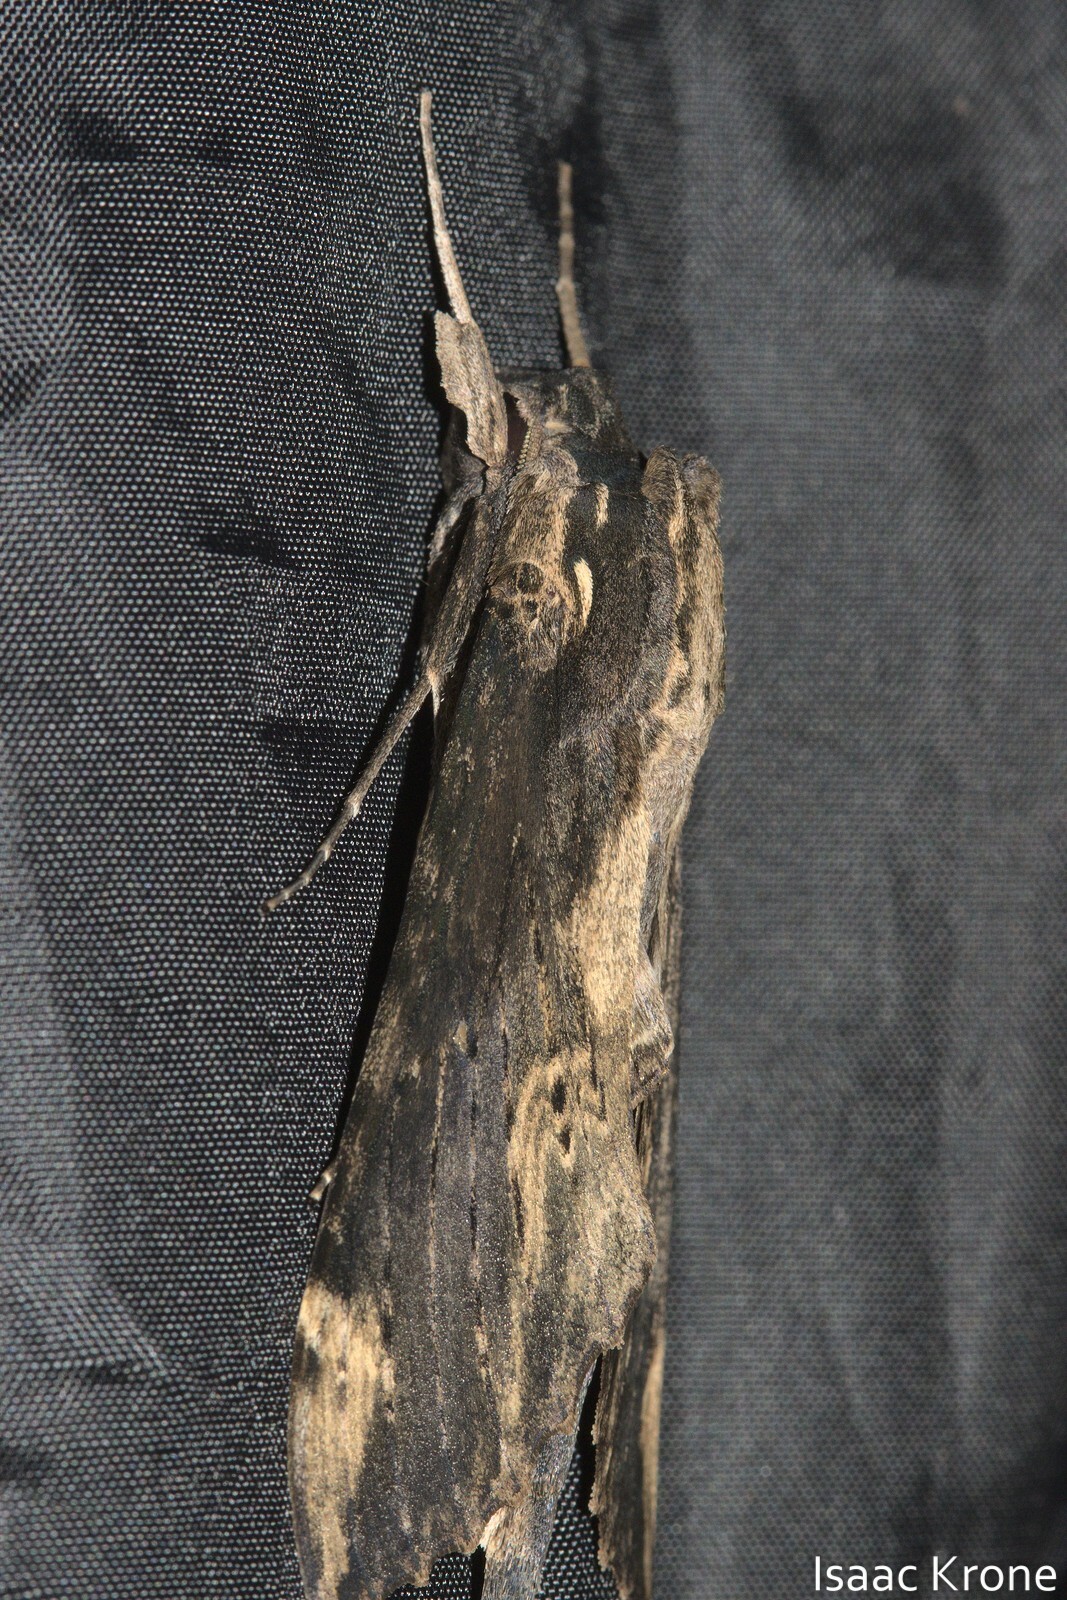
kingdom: Animalia
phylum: Arthropoda
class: Insecta
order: Lepidoptera
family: Sphingidae
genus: Erinnyis
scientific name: Erinnyis lassauxi
